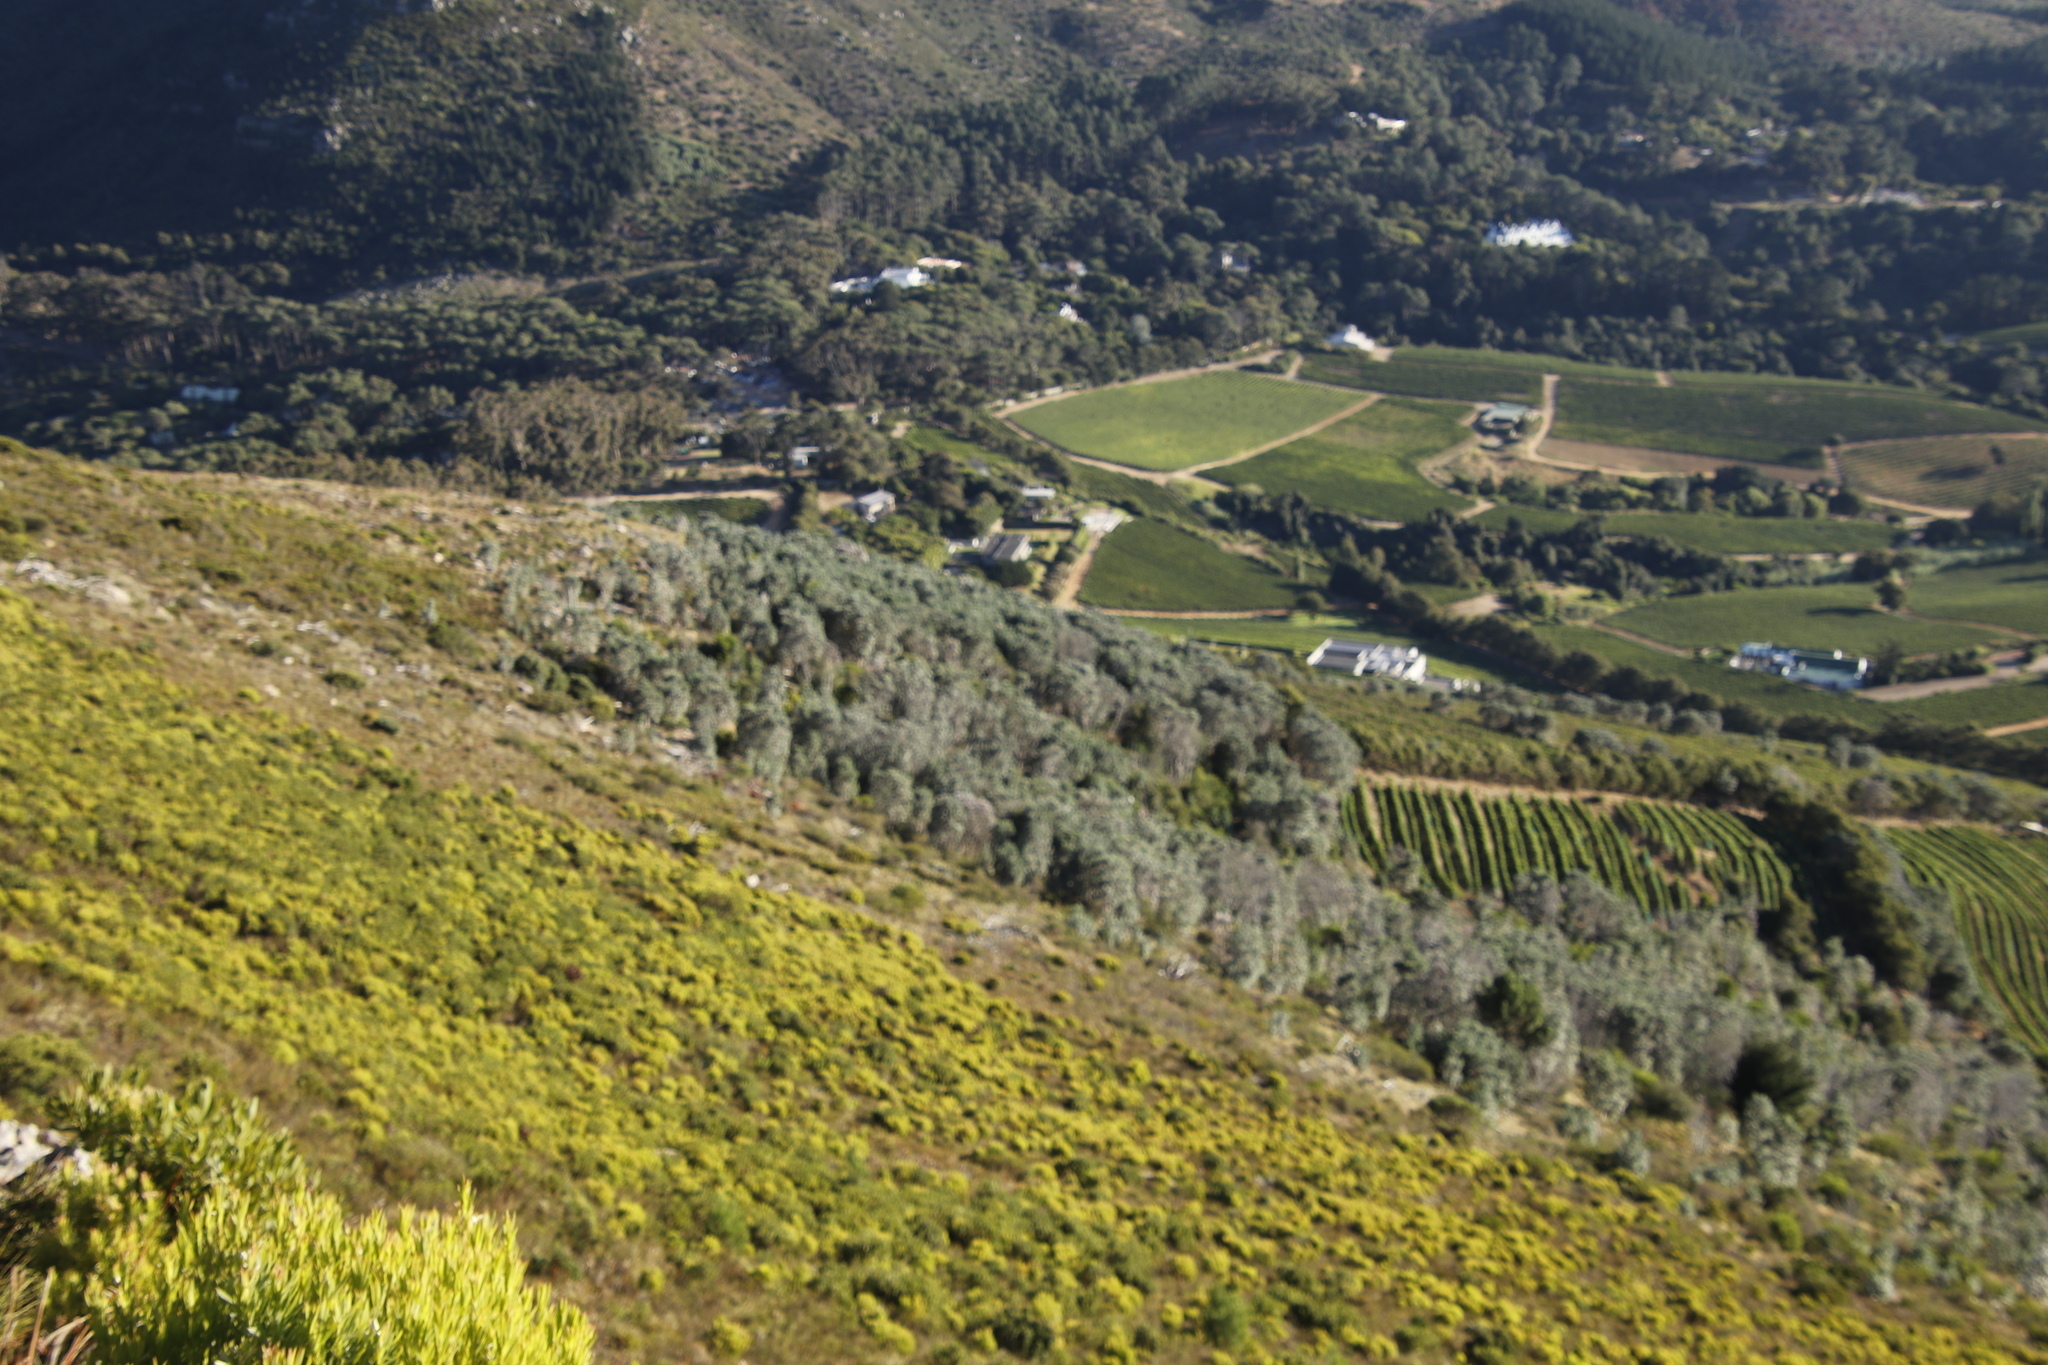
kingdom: Plantae
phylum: Tracheophyta
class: Magnoliopsida
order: Proteales
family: Proteaceae
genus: Leucadendron
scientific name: Leucadendron argenteum
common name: Cape silver tree
